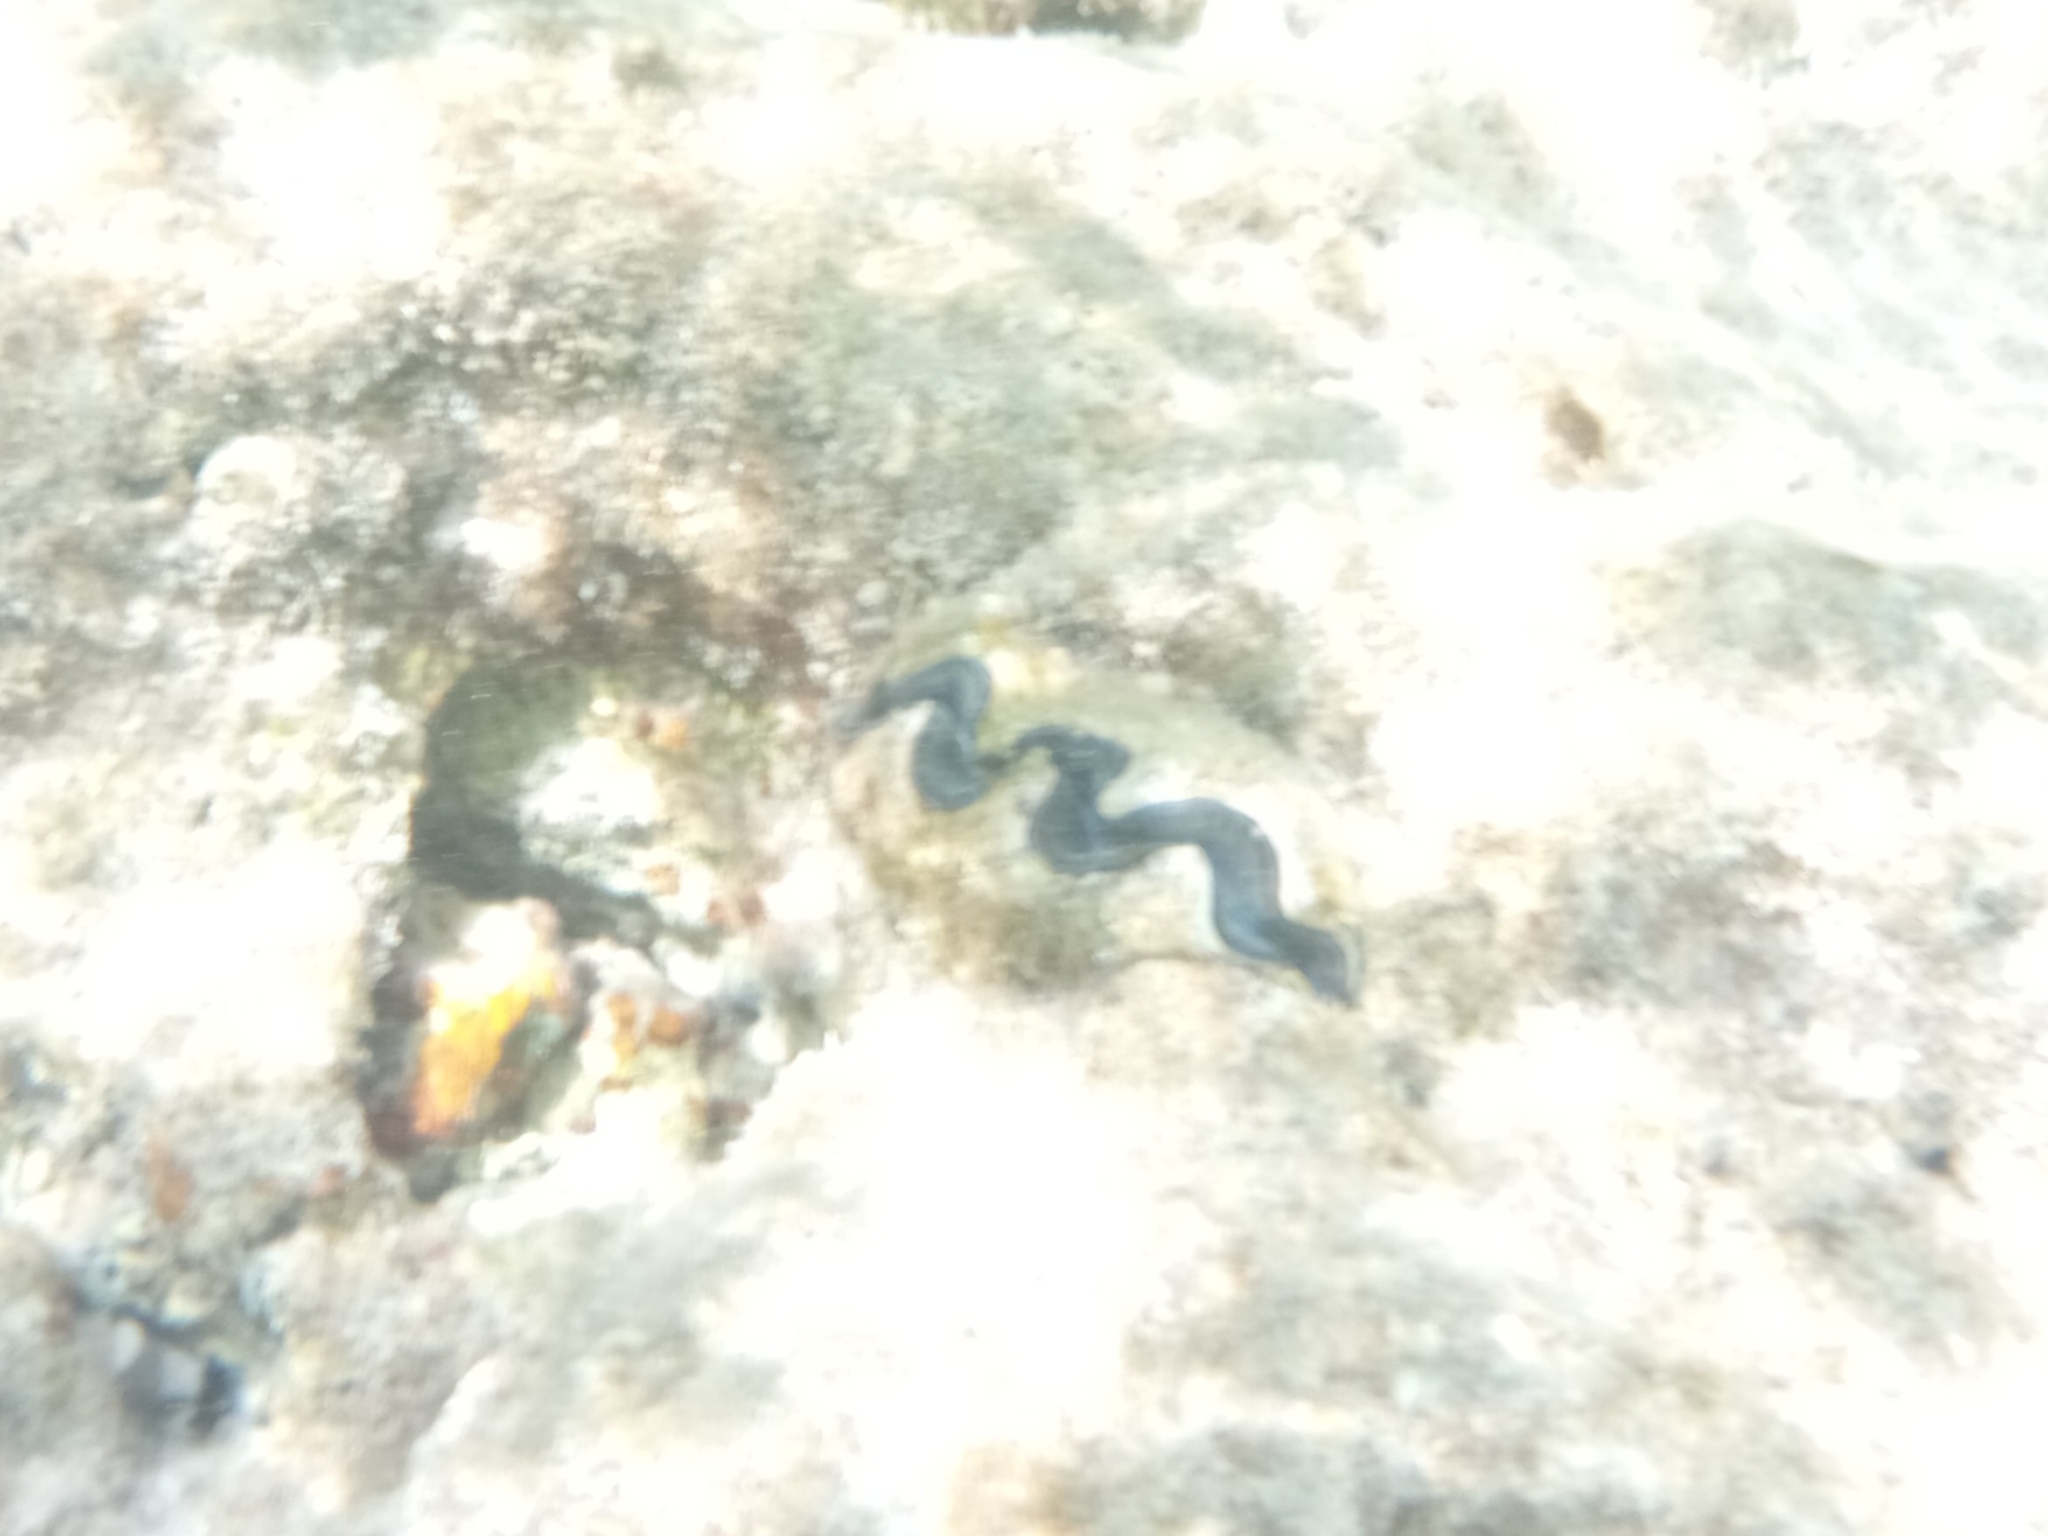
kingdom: Animalia
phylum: Mollusca
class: Bivalvia
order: Cardiida
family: Cardiidae
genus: Tridacna
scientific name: Tridacna maxima
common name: Small giant clam
